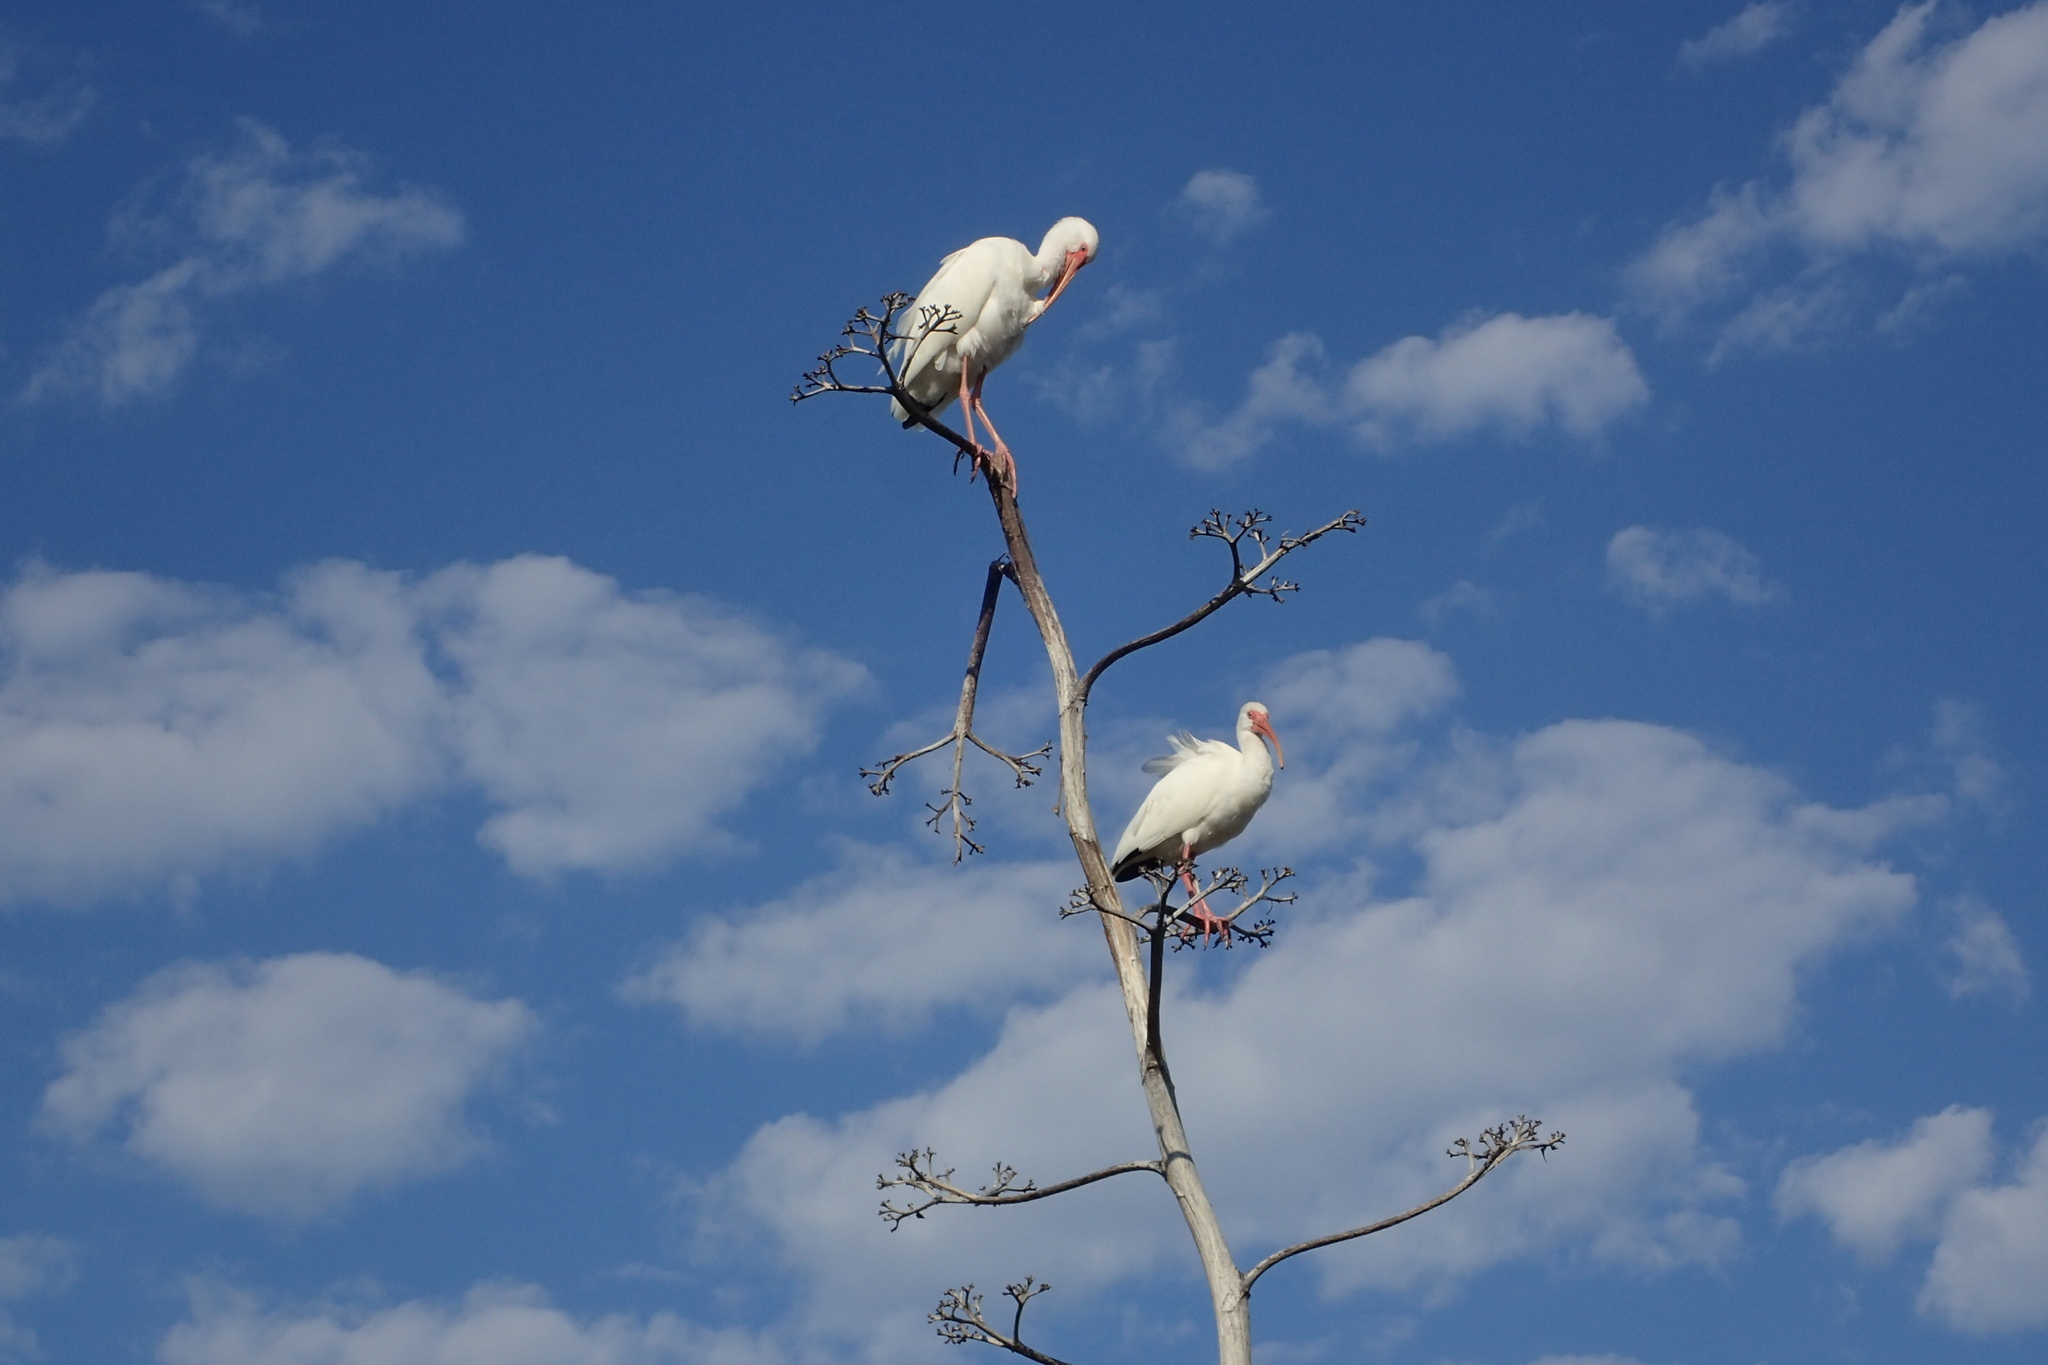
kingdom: Animalia
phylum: Chordata
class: Aves
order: Pelecaniformes
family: Threskiornithidae
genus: Eudocimus
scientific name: Eudocimus albus
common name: White ibis
